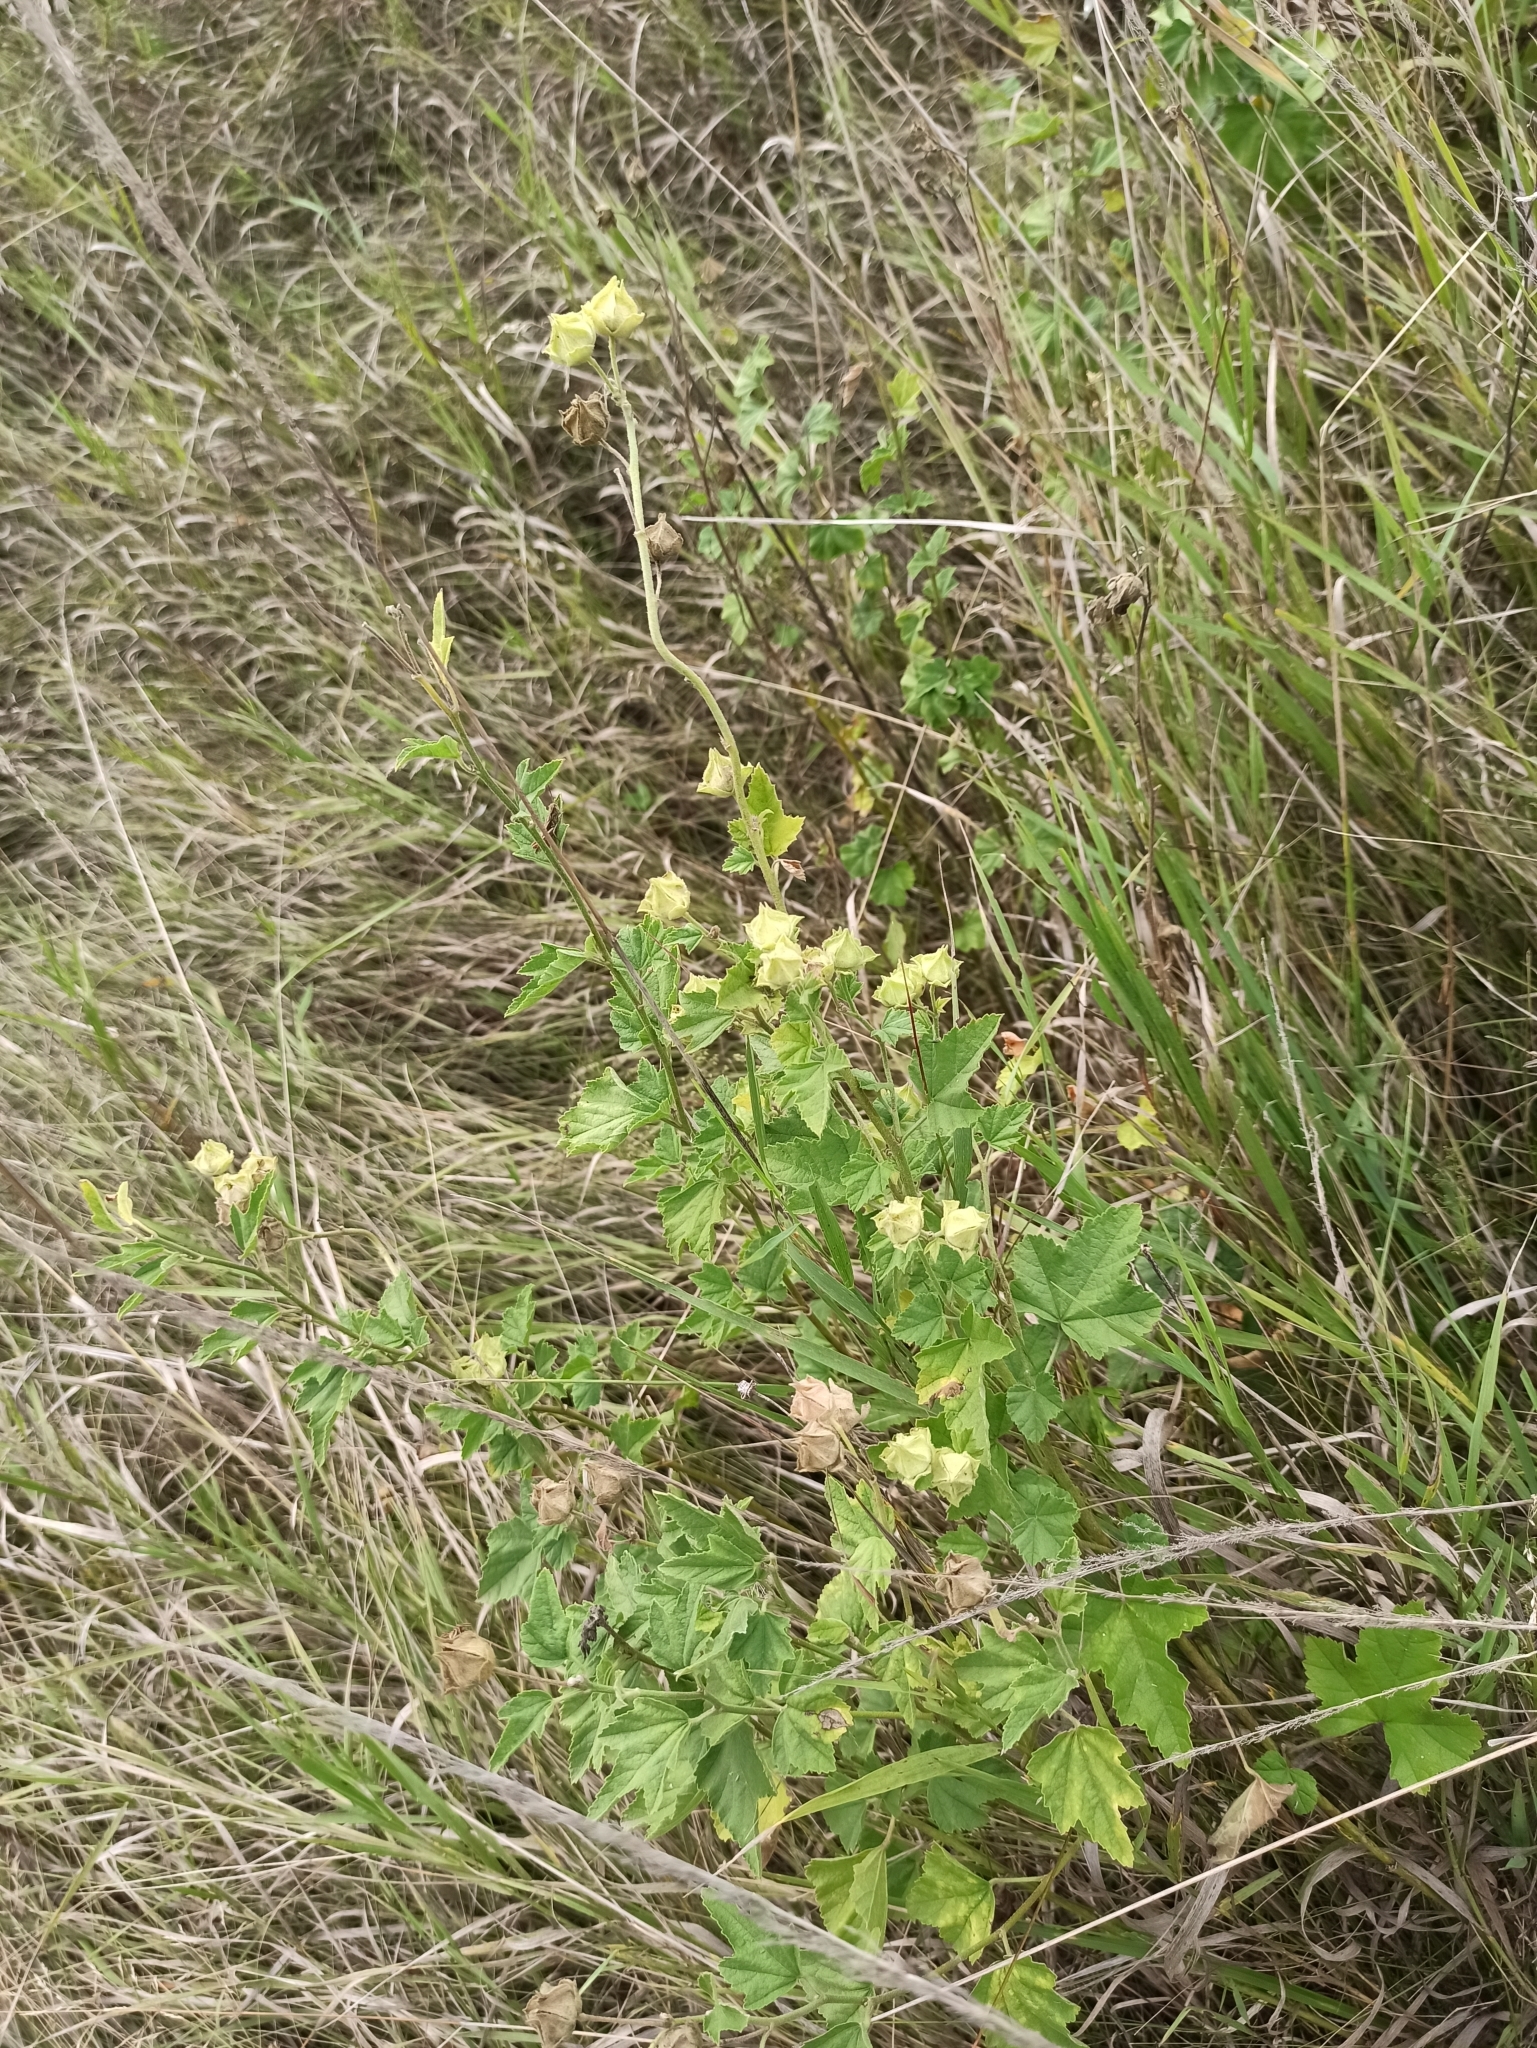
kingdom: Plantae
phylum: Tracheophyta
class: Magnoliopsida
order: Malvales
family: Malvaceae
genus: Malva
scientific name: Malva thuringiaca
